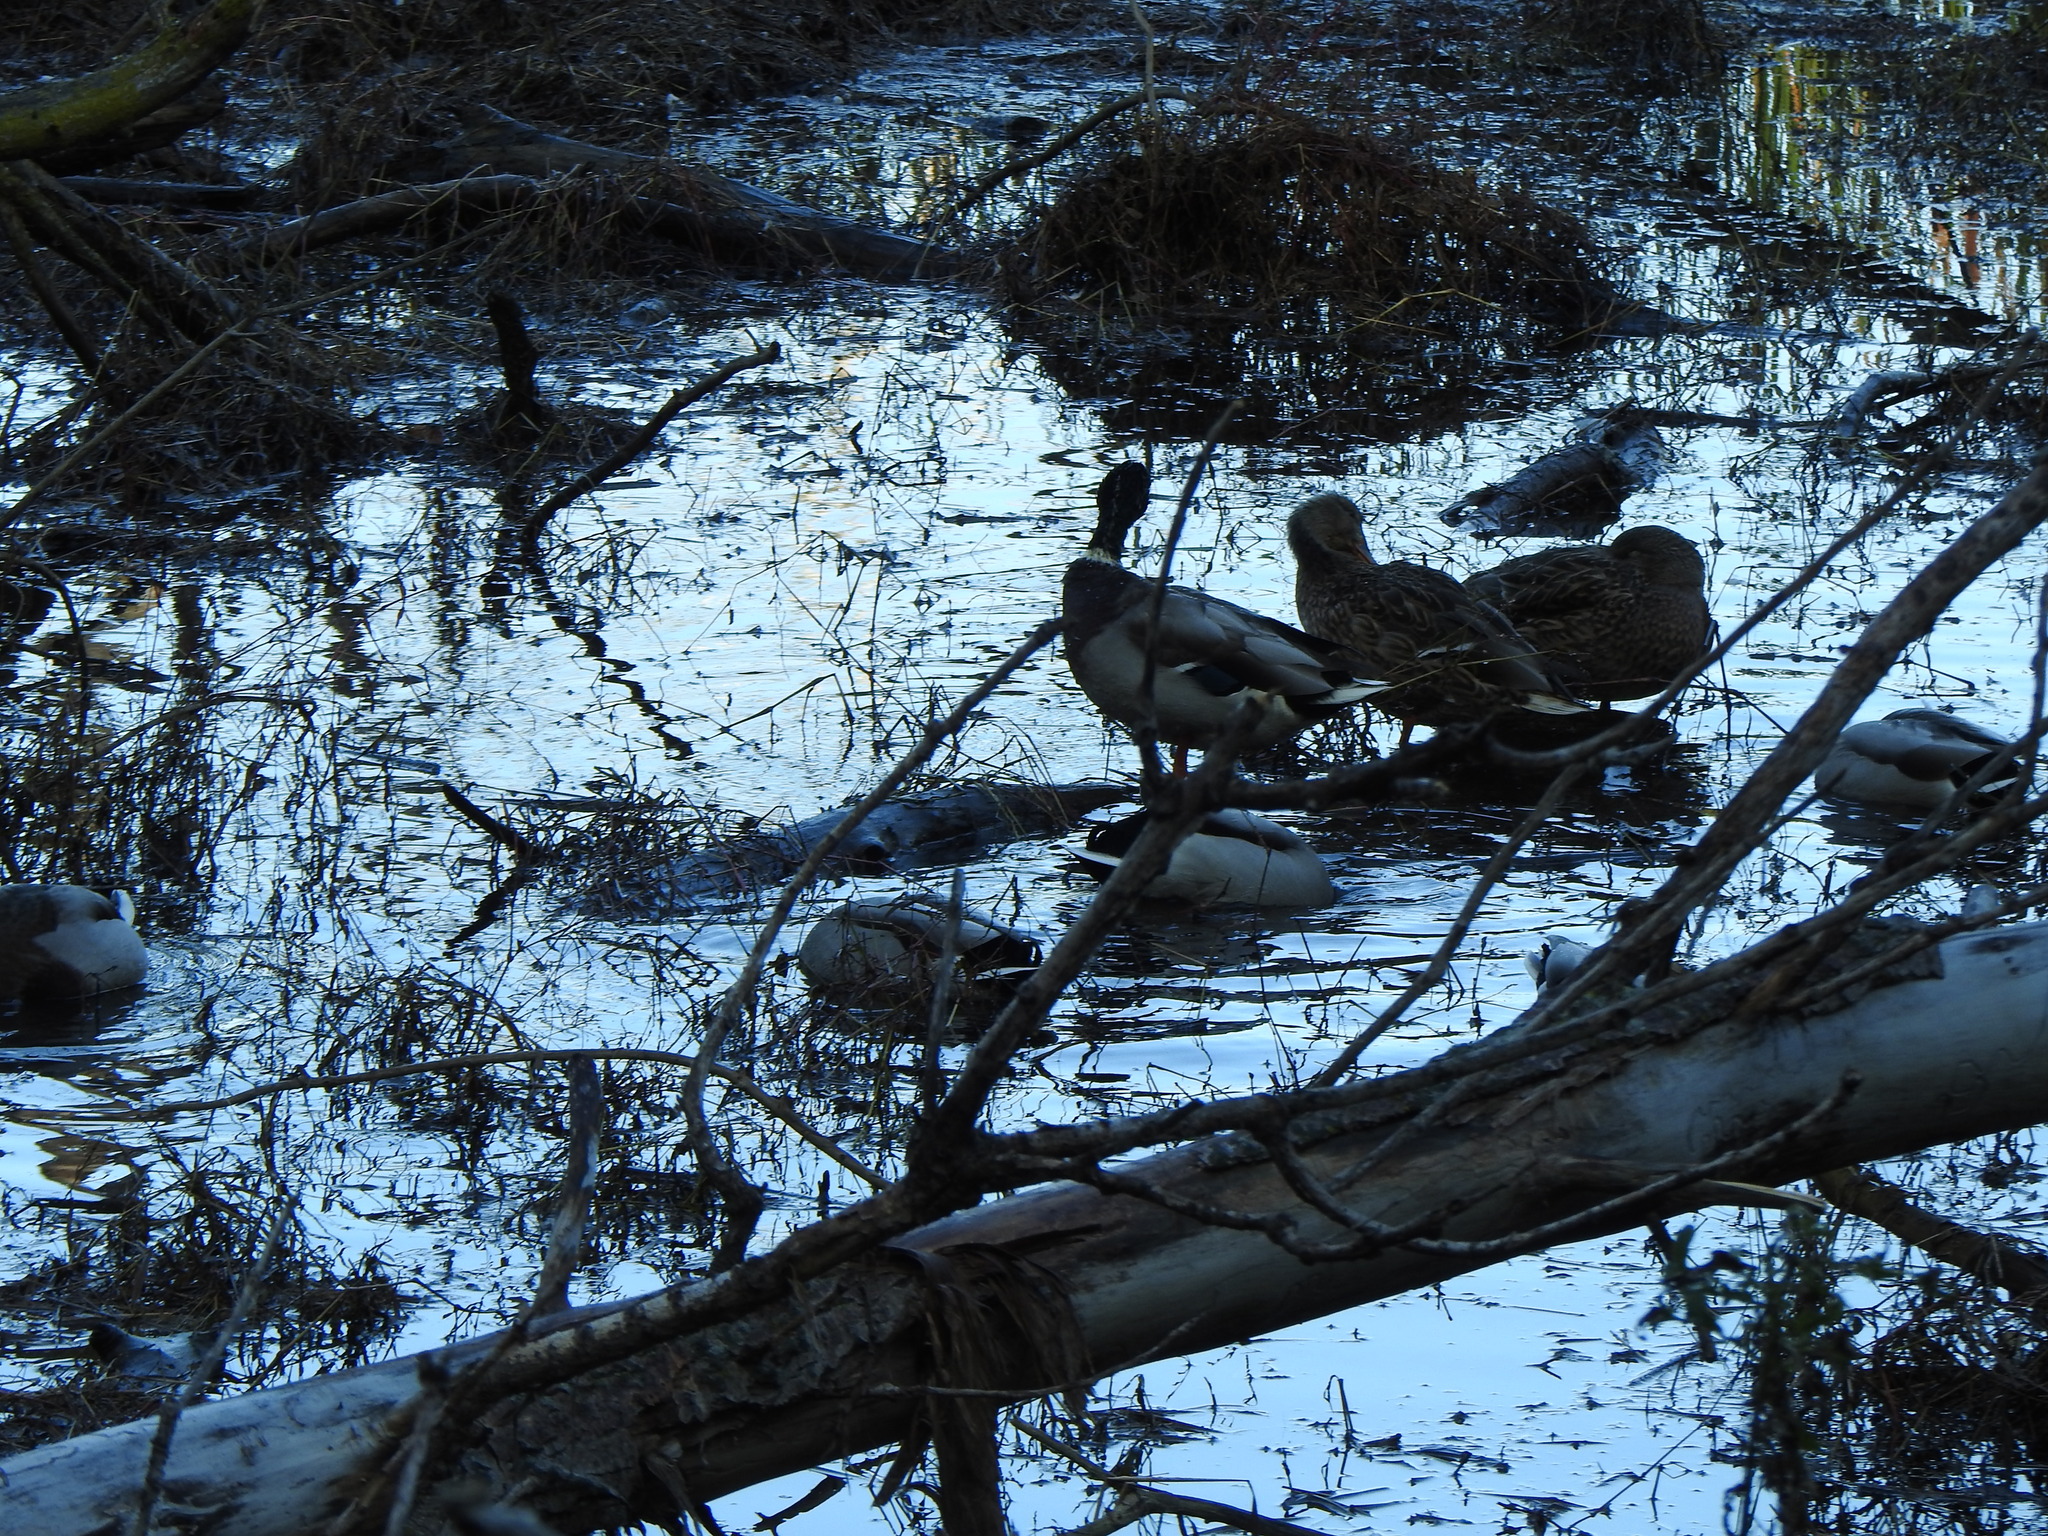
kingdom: Animalia
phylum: Chordata
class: Aves
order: Anseriformes
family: Anatidae
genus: Anas
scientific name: Anas platyrhynchos
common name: Mallard
